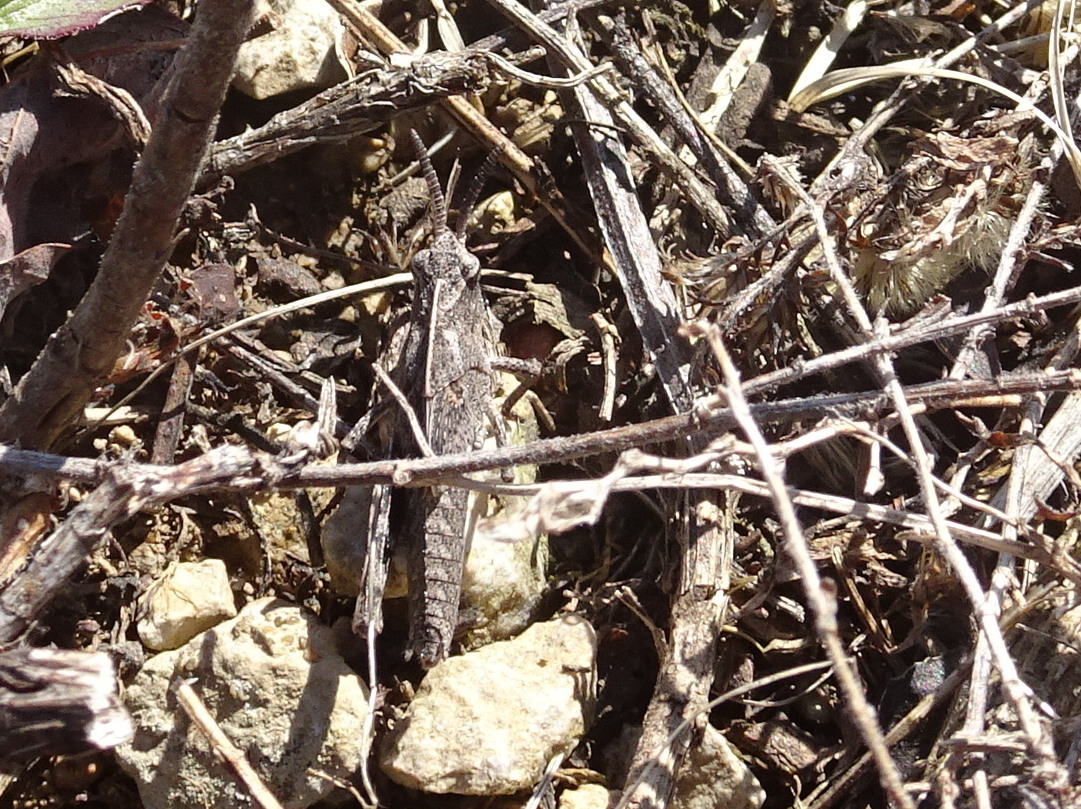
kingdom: Animalia
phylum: Arthropoda
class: Insecta
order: Orthoptera
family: Acrididae
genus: Chortophaga
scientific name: Chortophaga viridifasciata
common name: Green-striped grasshopper
